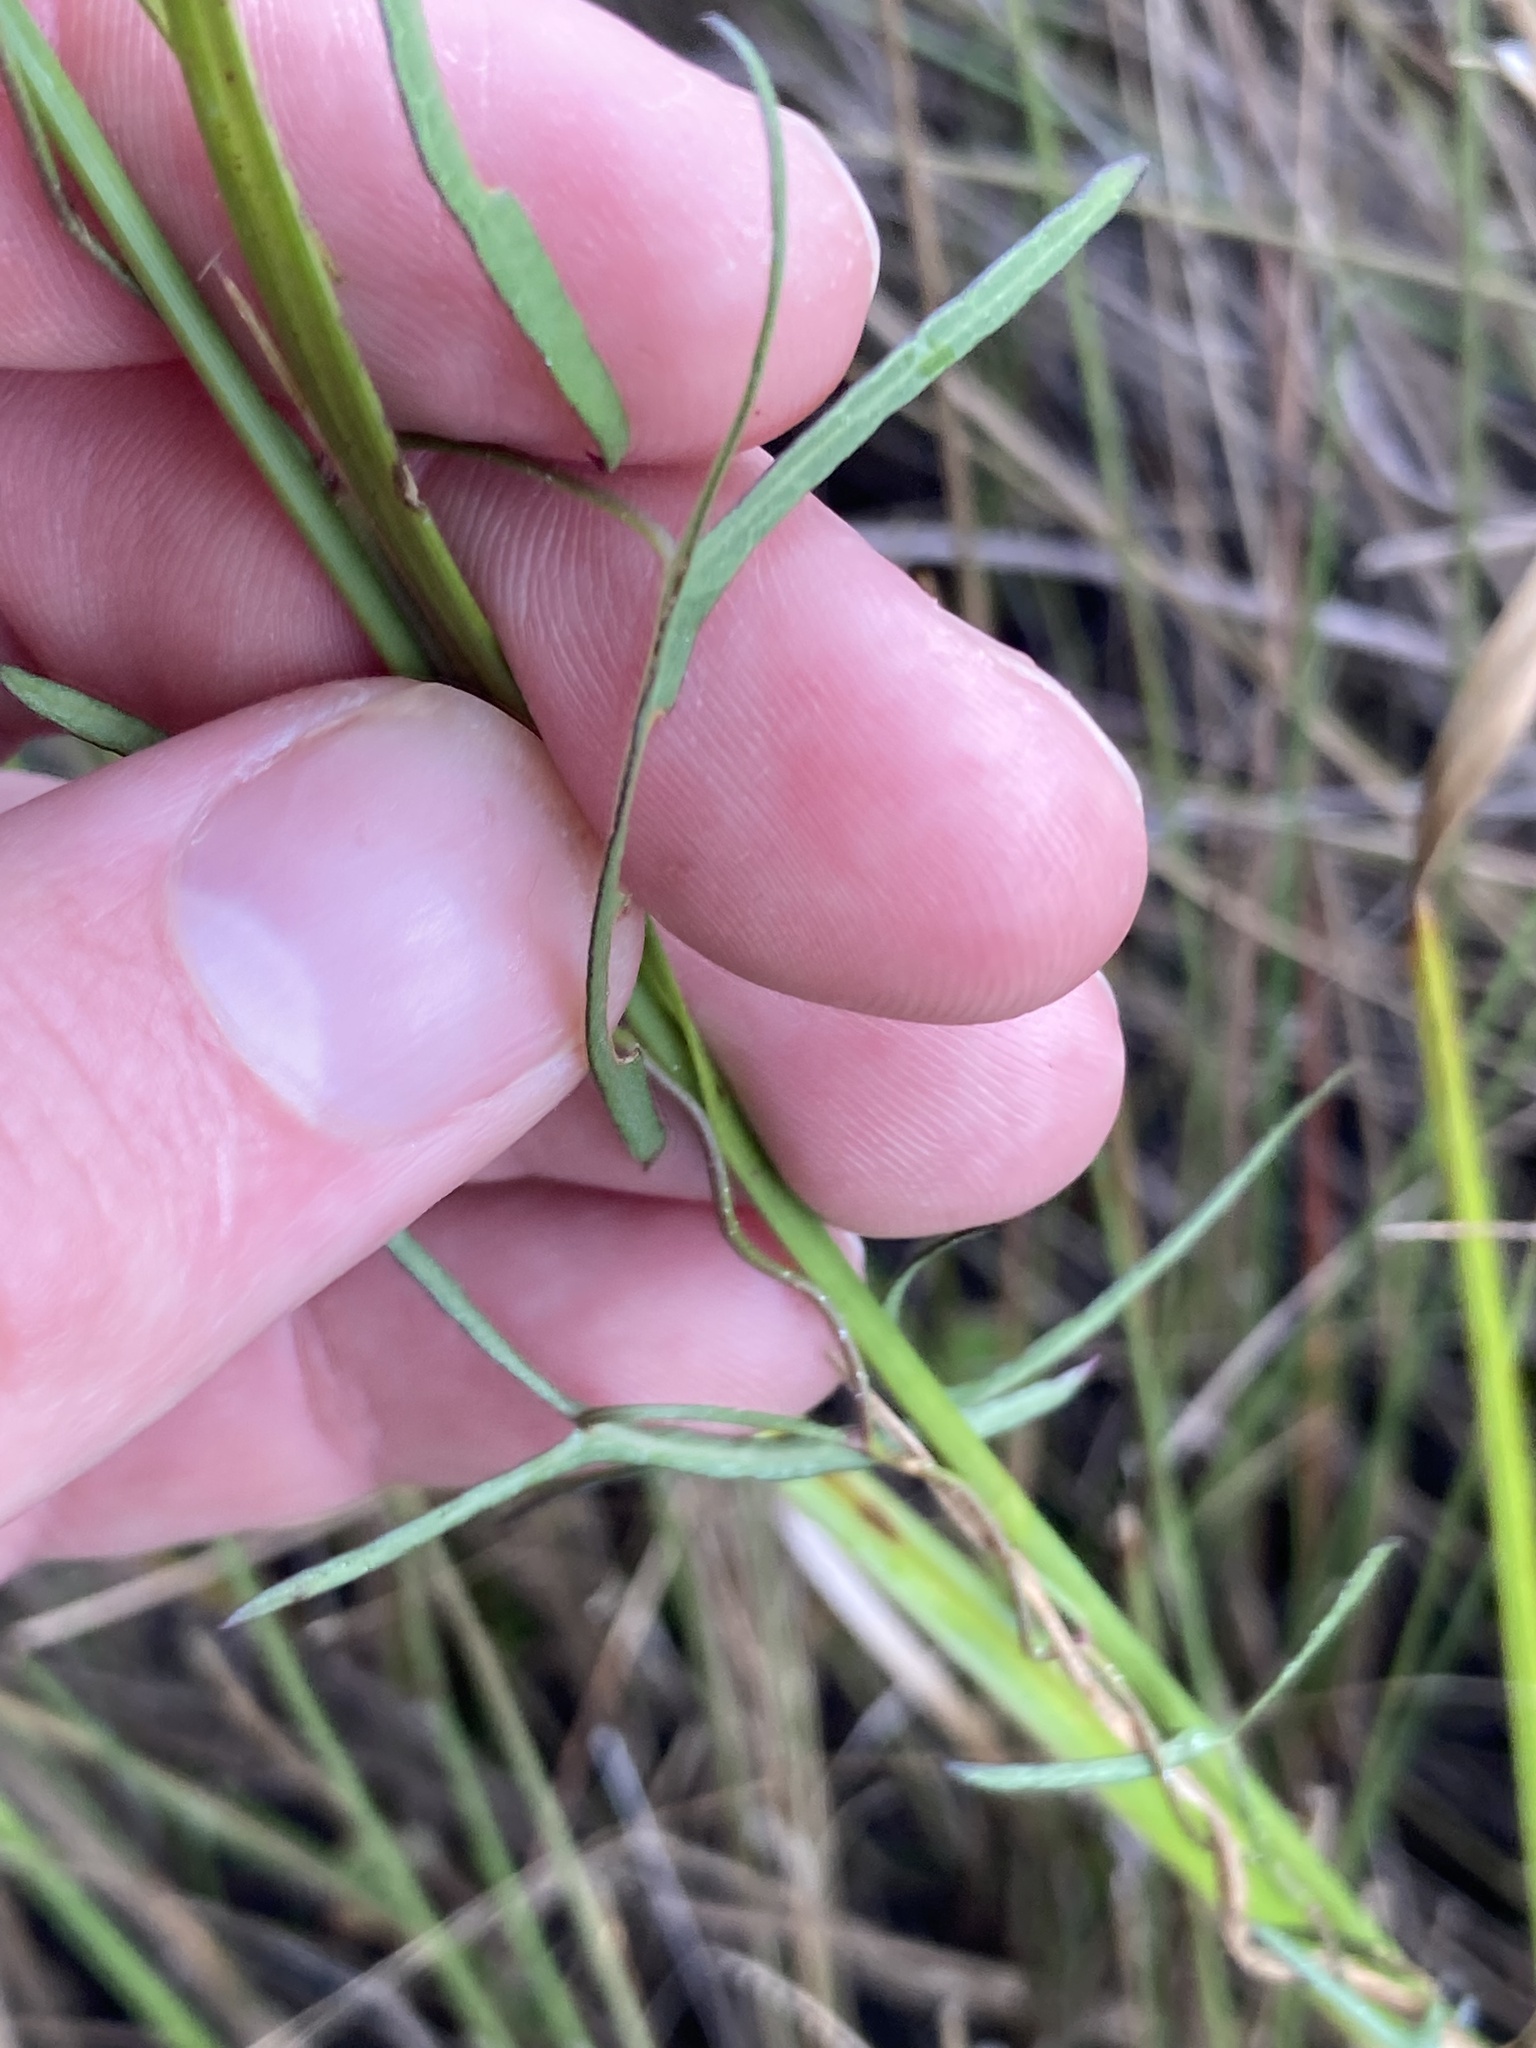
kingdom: Plantae
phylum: Tracheophyta
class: Magnoliopsida
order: Solanales
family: Convolvulaceae
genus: Ipomoea
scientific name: Ipomoea sagittata
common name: Saltmarsh morning glory
